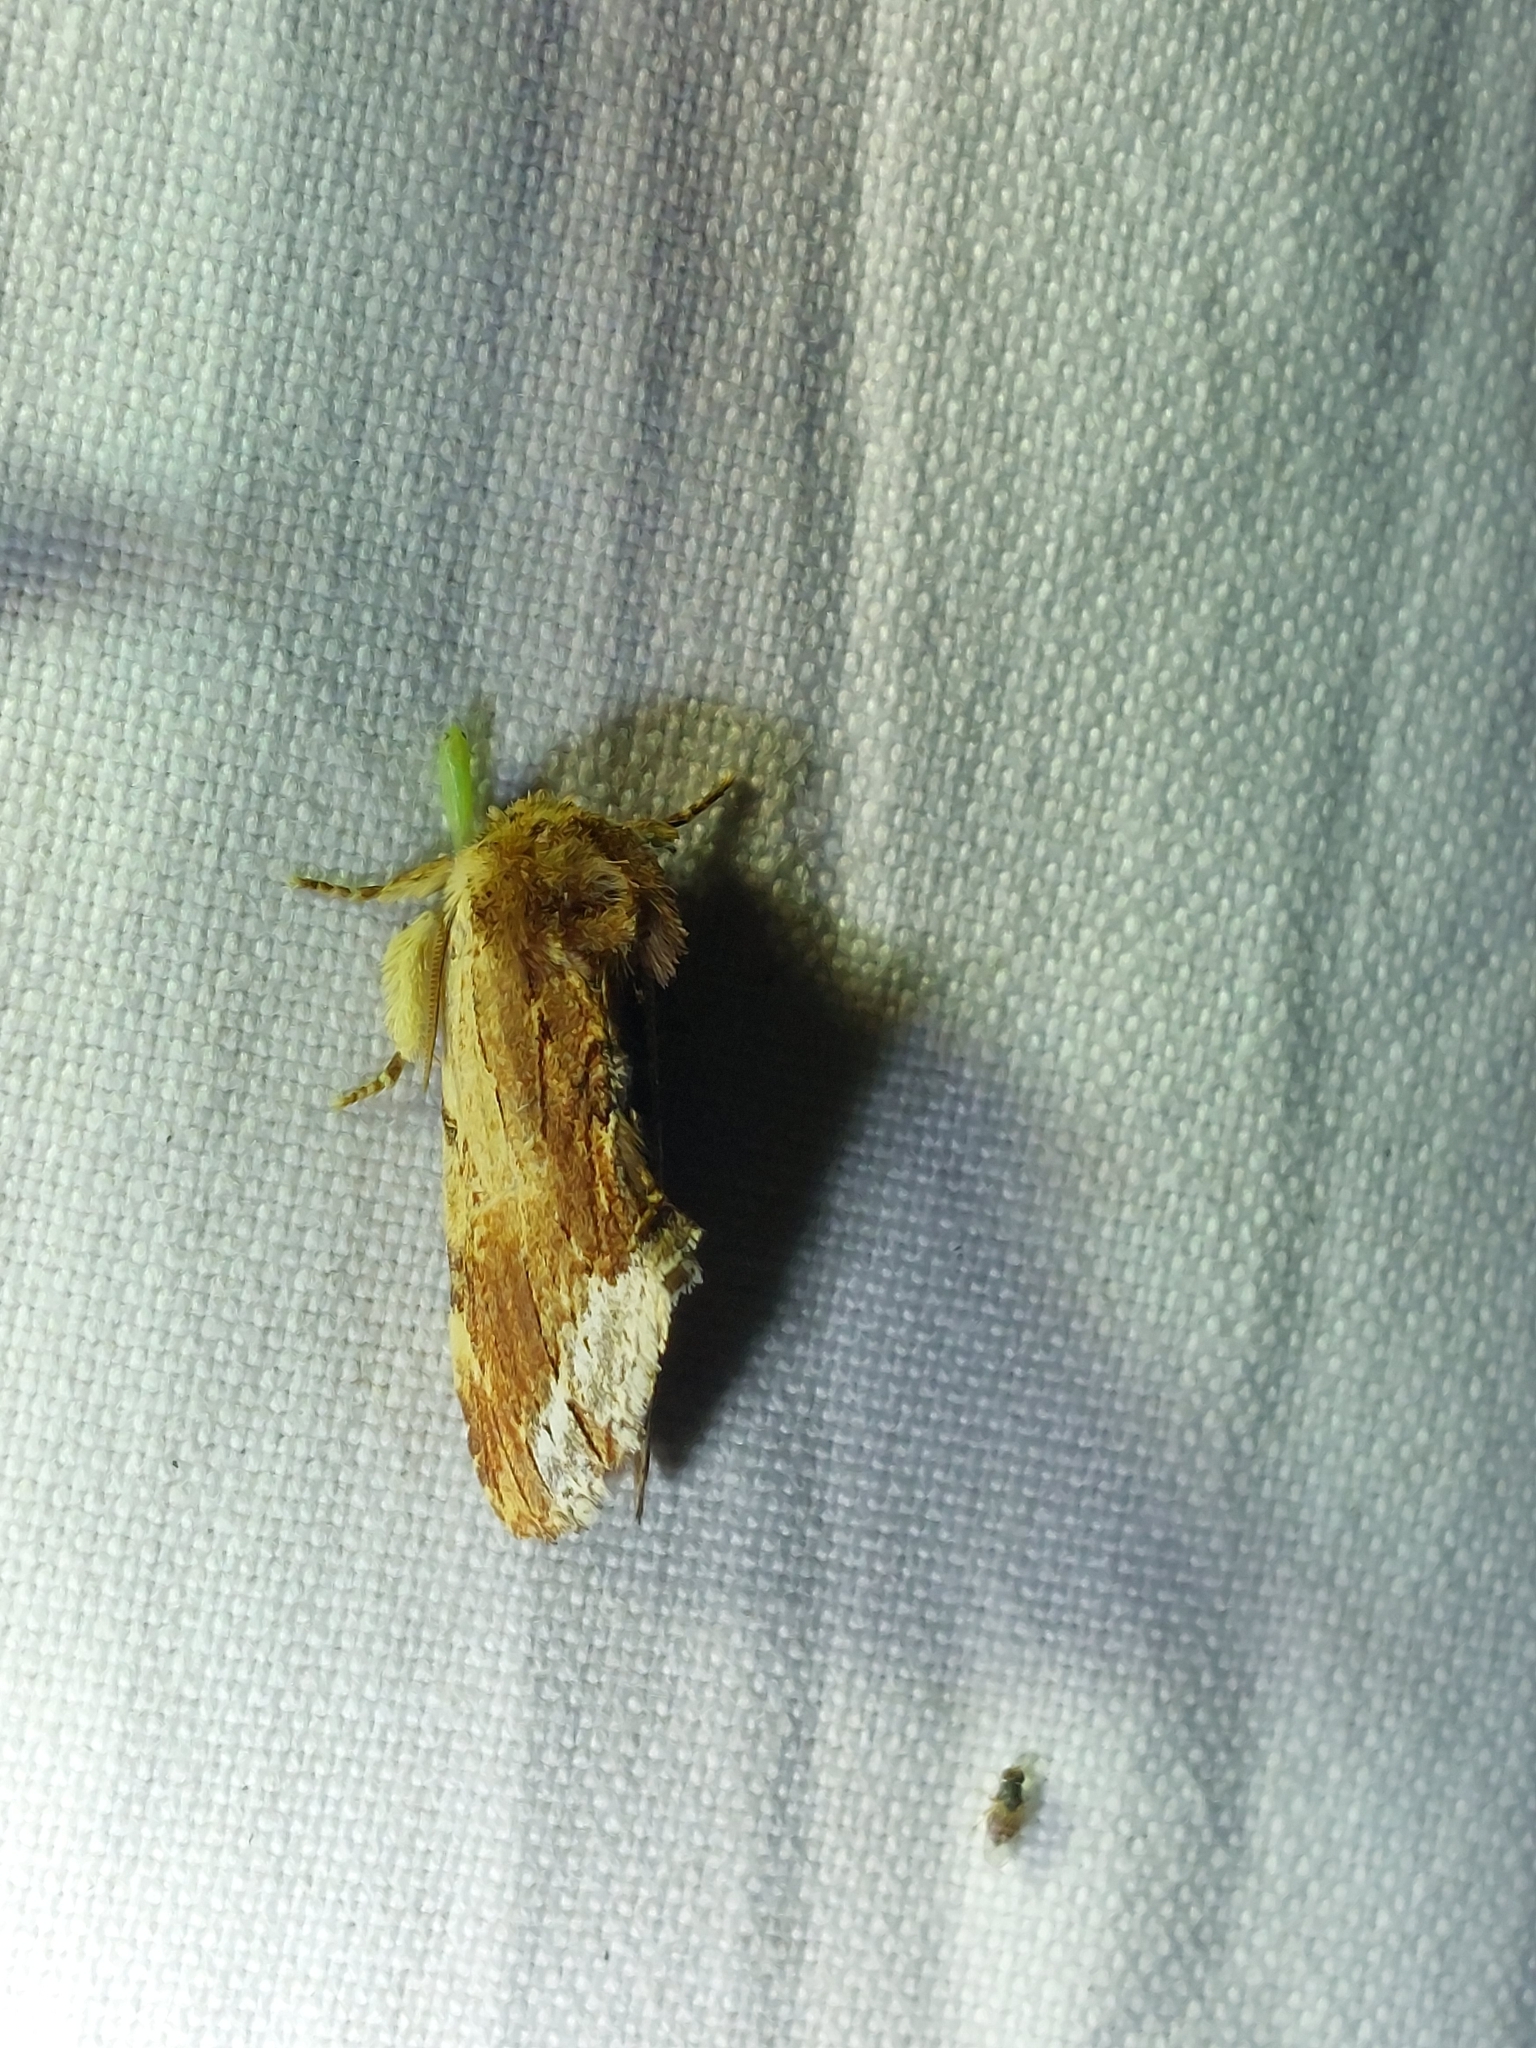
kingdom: Animalia
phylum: Arthropoda
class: Insecta
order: Lepidoptera
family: Notodontidae
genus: Ptilodon
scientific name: Ptilodon cucullina
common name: Maple prominent
